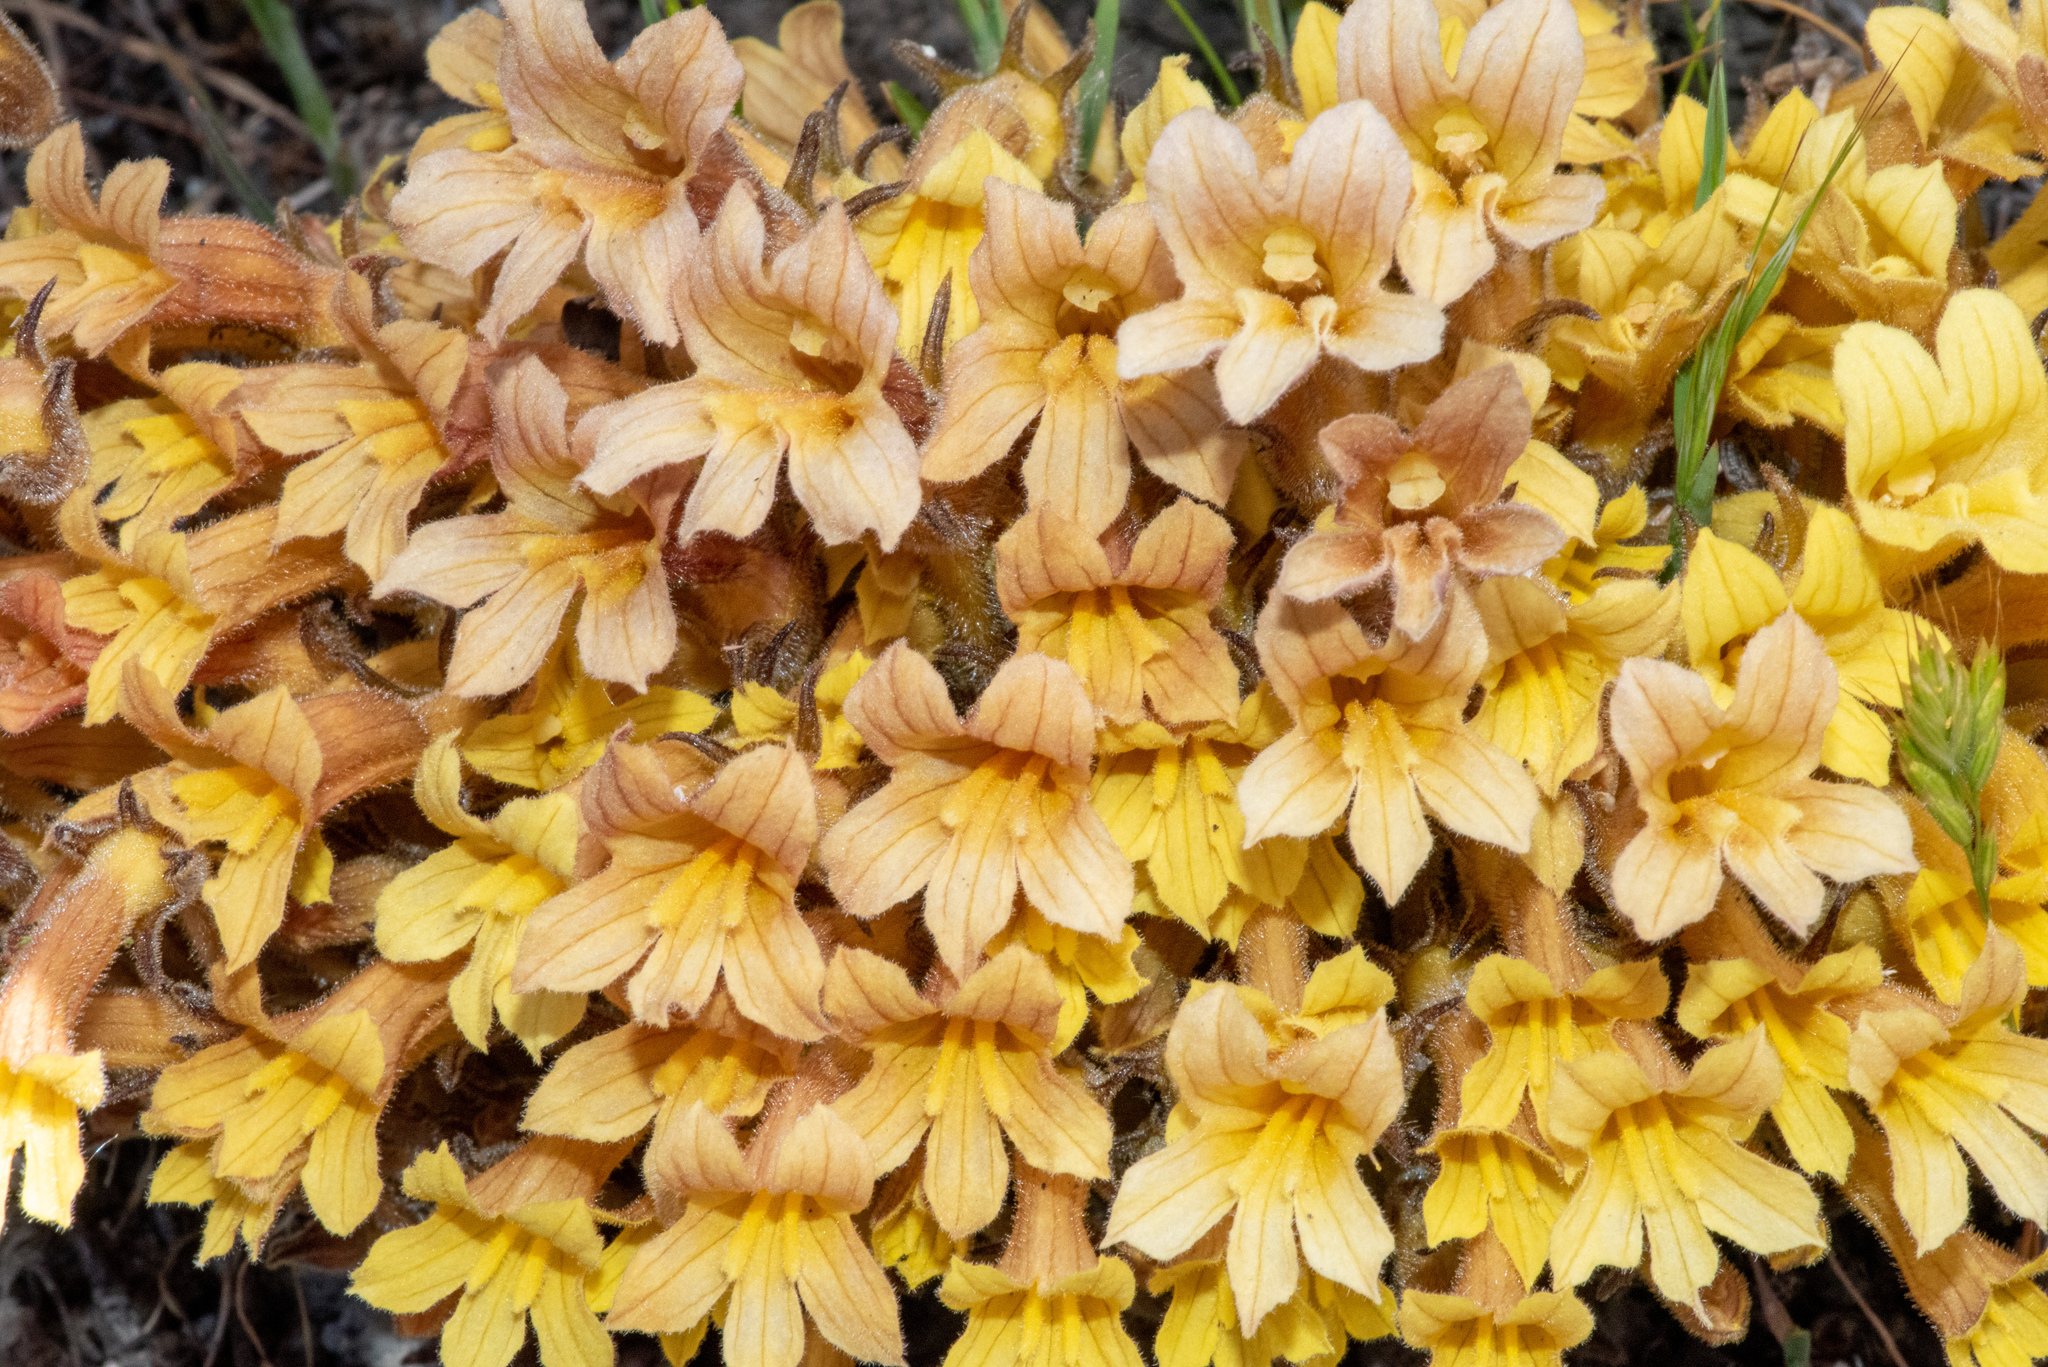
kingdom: Plantae
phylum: Tracheophyta
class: Magnoliopsida
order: Lamiales
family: Orobanchaceae
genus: Aphyllon
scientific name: Aphyllon franciscanum
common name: San francisco broomrape
